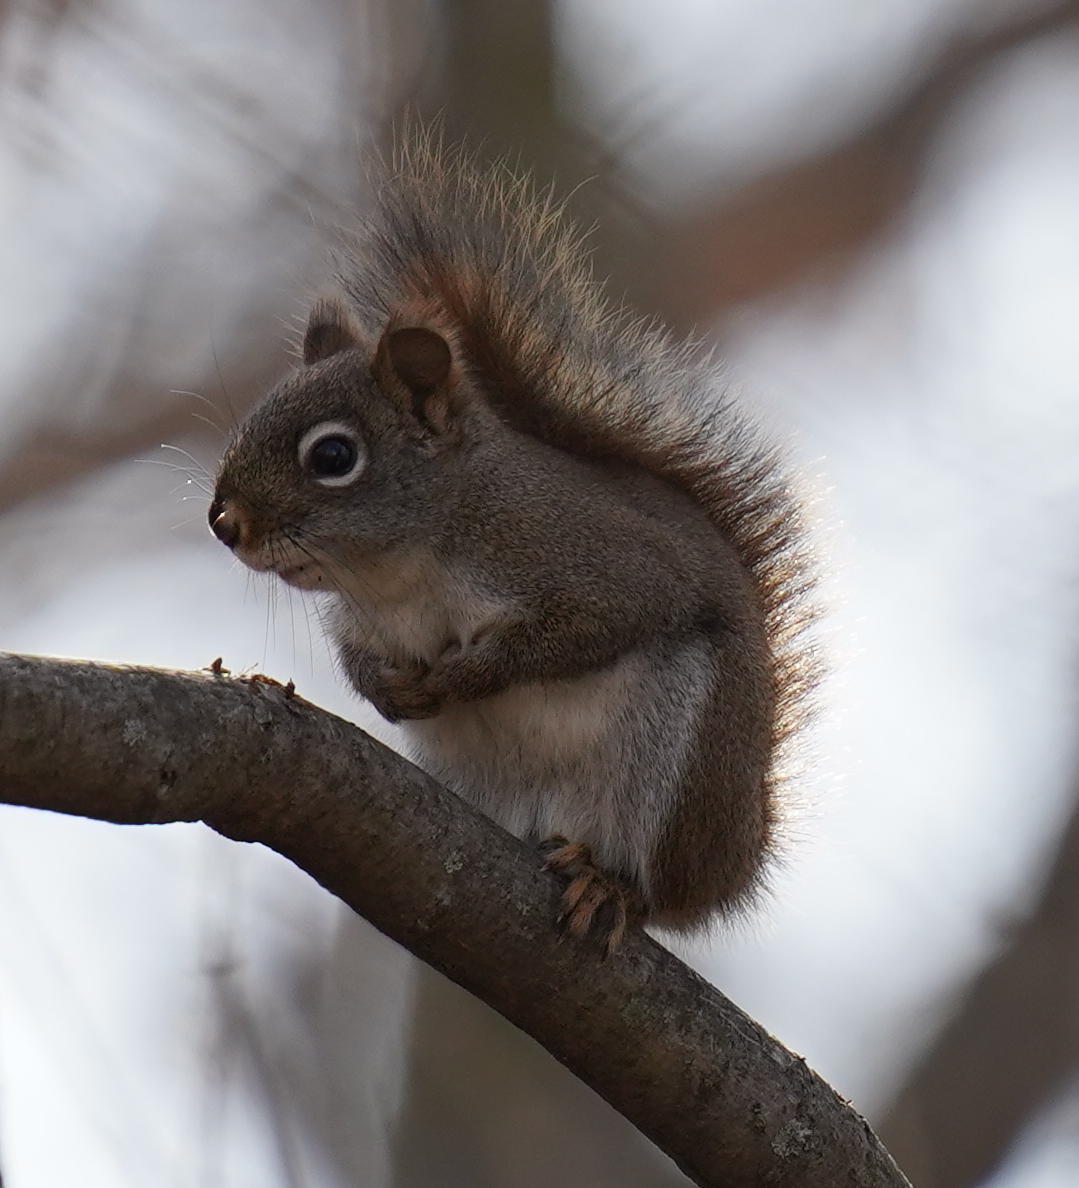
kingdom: Animalia
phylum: Chordata
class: Mammalia
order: Rodentia
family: Sciuridae
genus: Tamiasciurus
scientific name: Tamiasciurus hudsonicus
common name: Red squirrel
